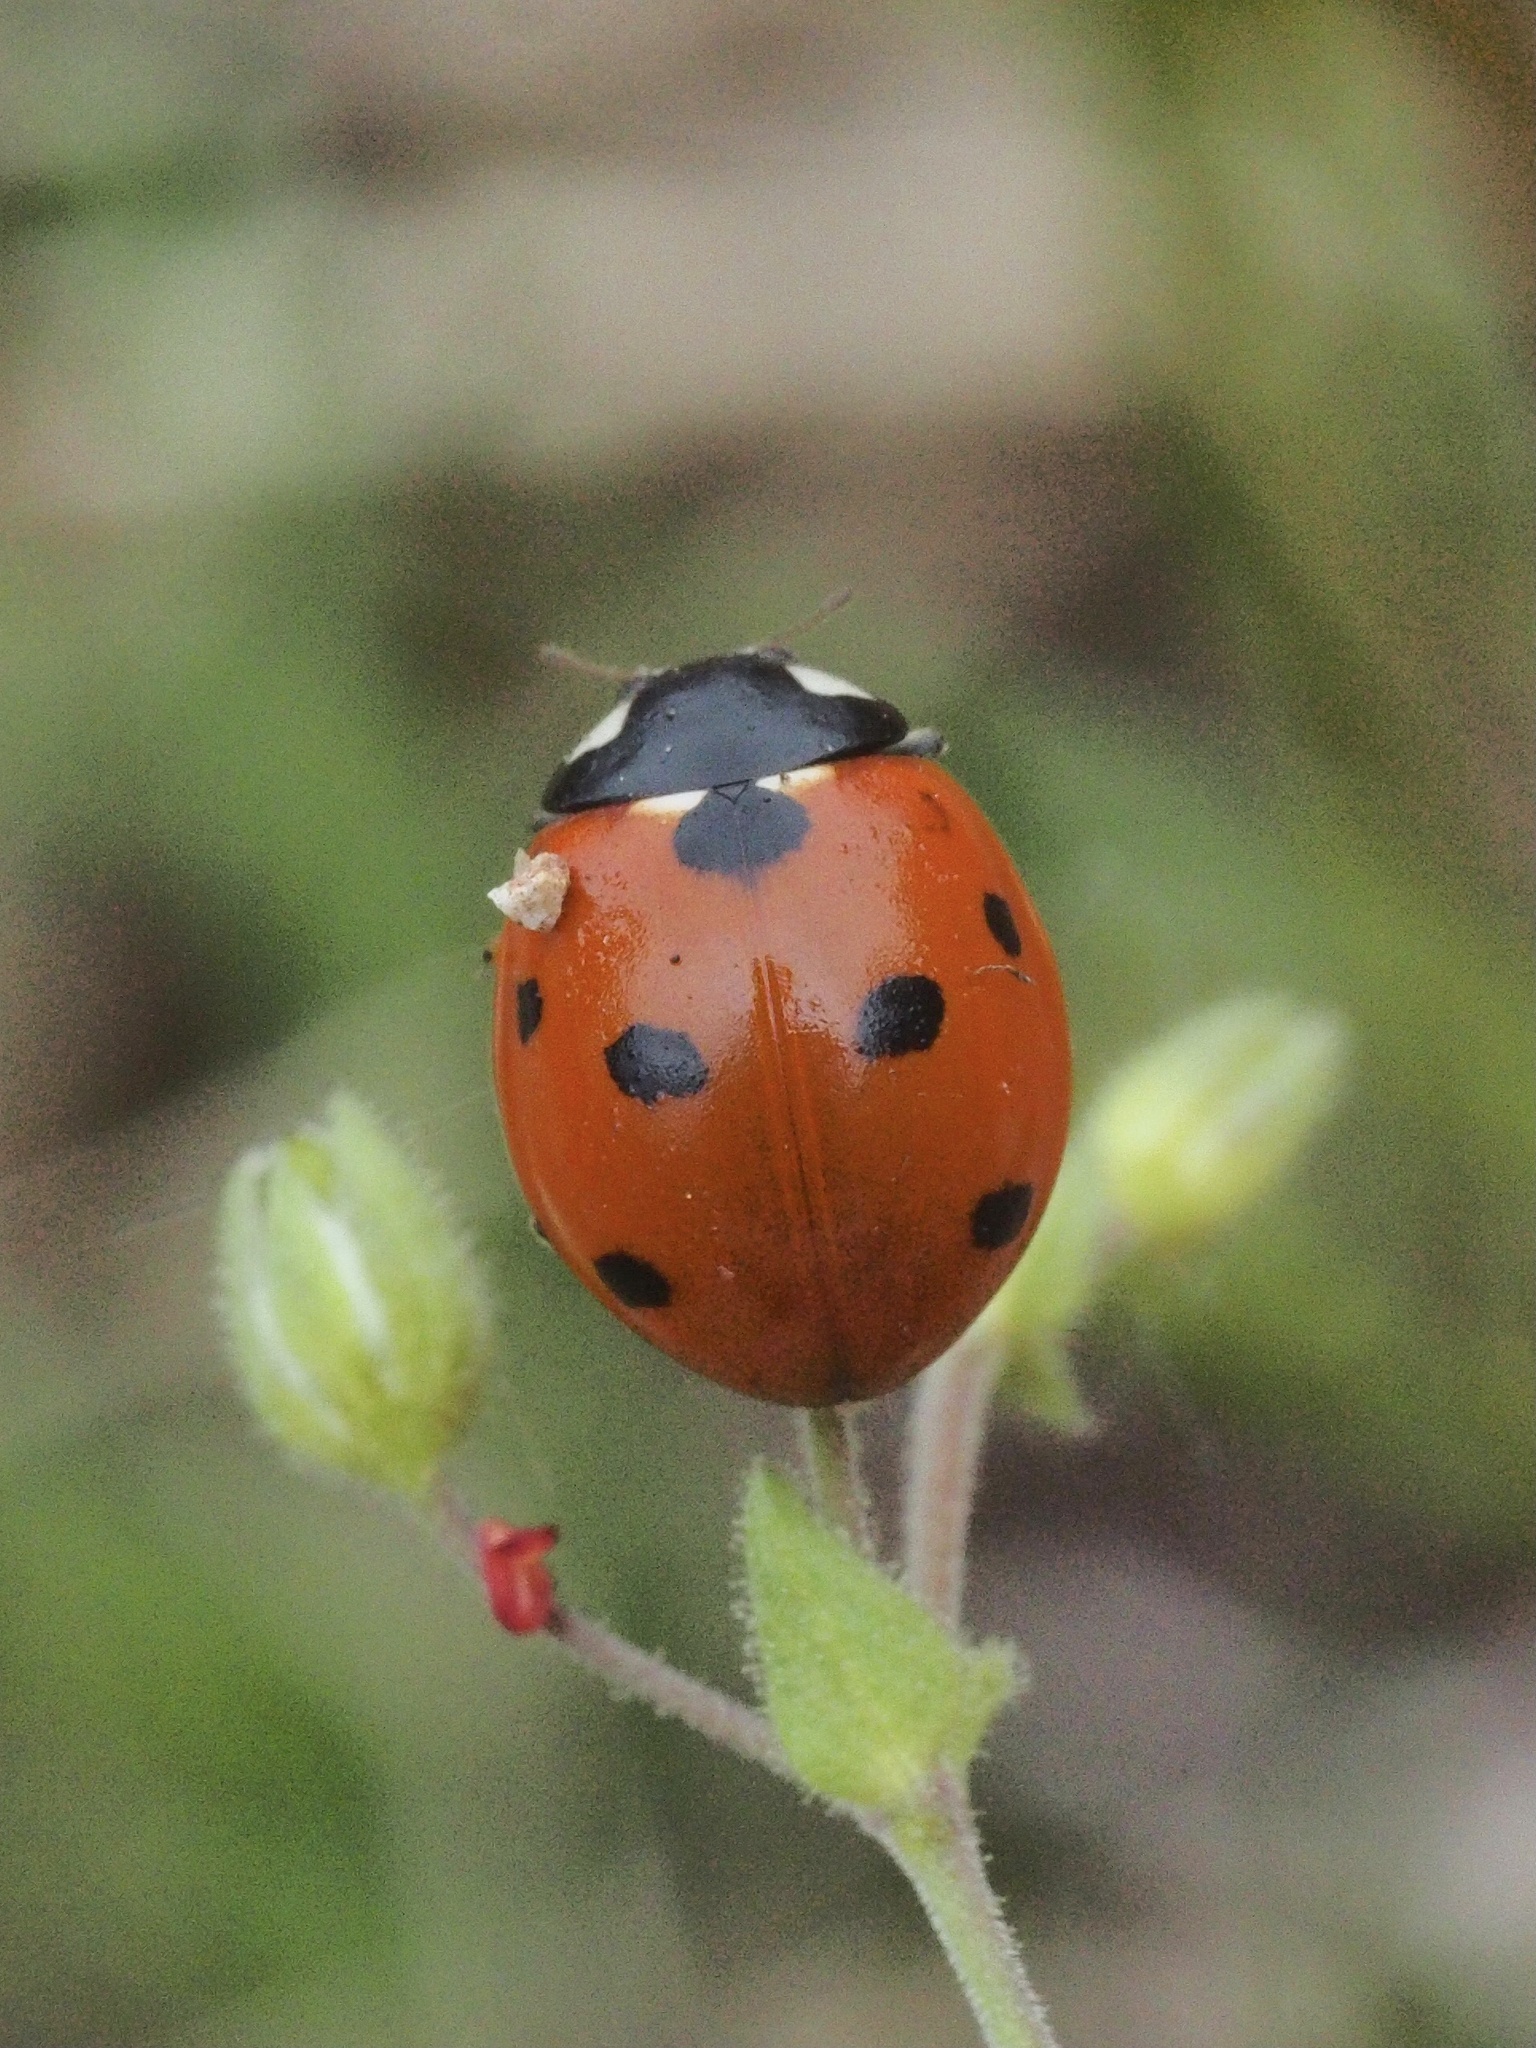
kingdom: Animalia
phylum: Arthropoda
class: Insecta
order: Coleoptera
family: Coccinellidae
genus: Coccinella
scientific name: Coccinella septempunctata
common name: Sevenspotted lady beetle
